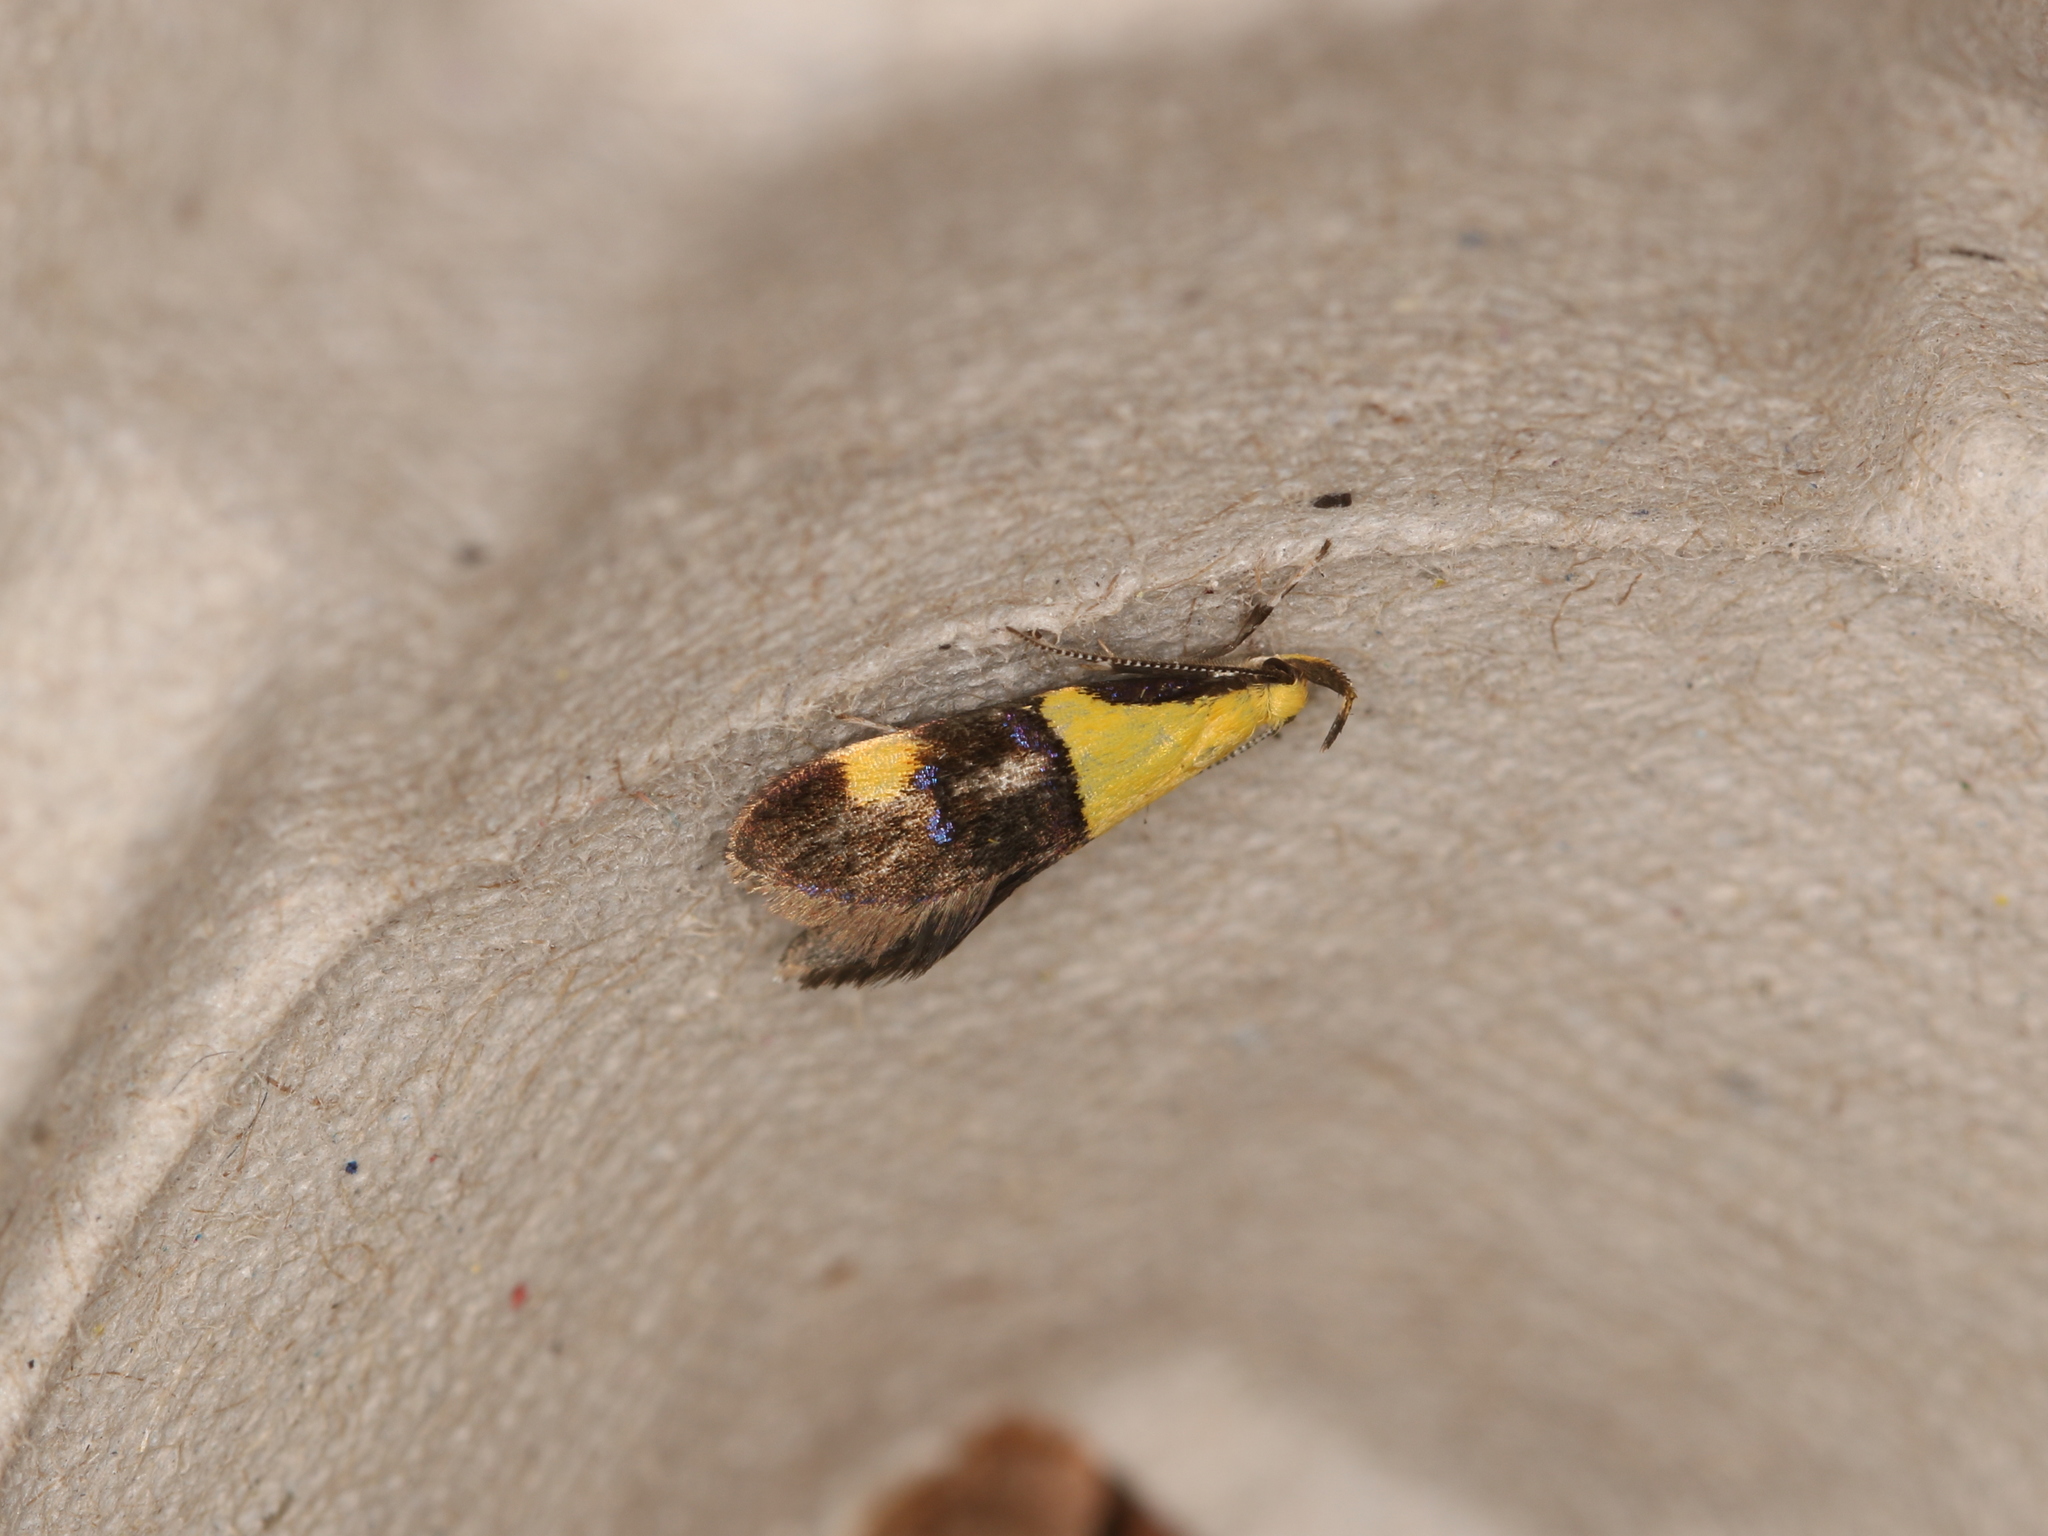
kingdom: Animalia
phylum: Arthropoda
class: Insecta
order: Lepidoptera
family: Oecophoridae
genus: Oecophora
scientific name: Oecophora bractella
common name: Gold-base tubic
